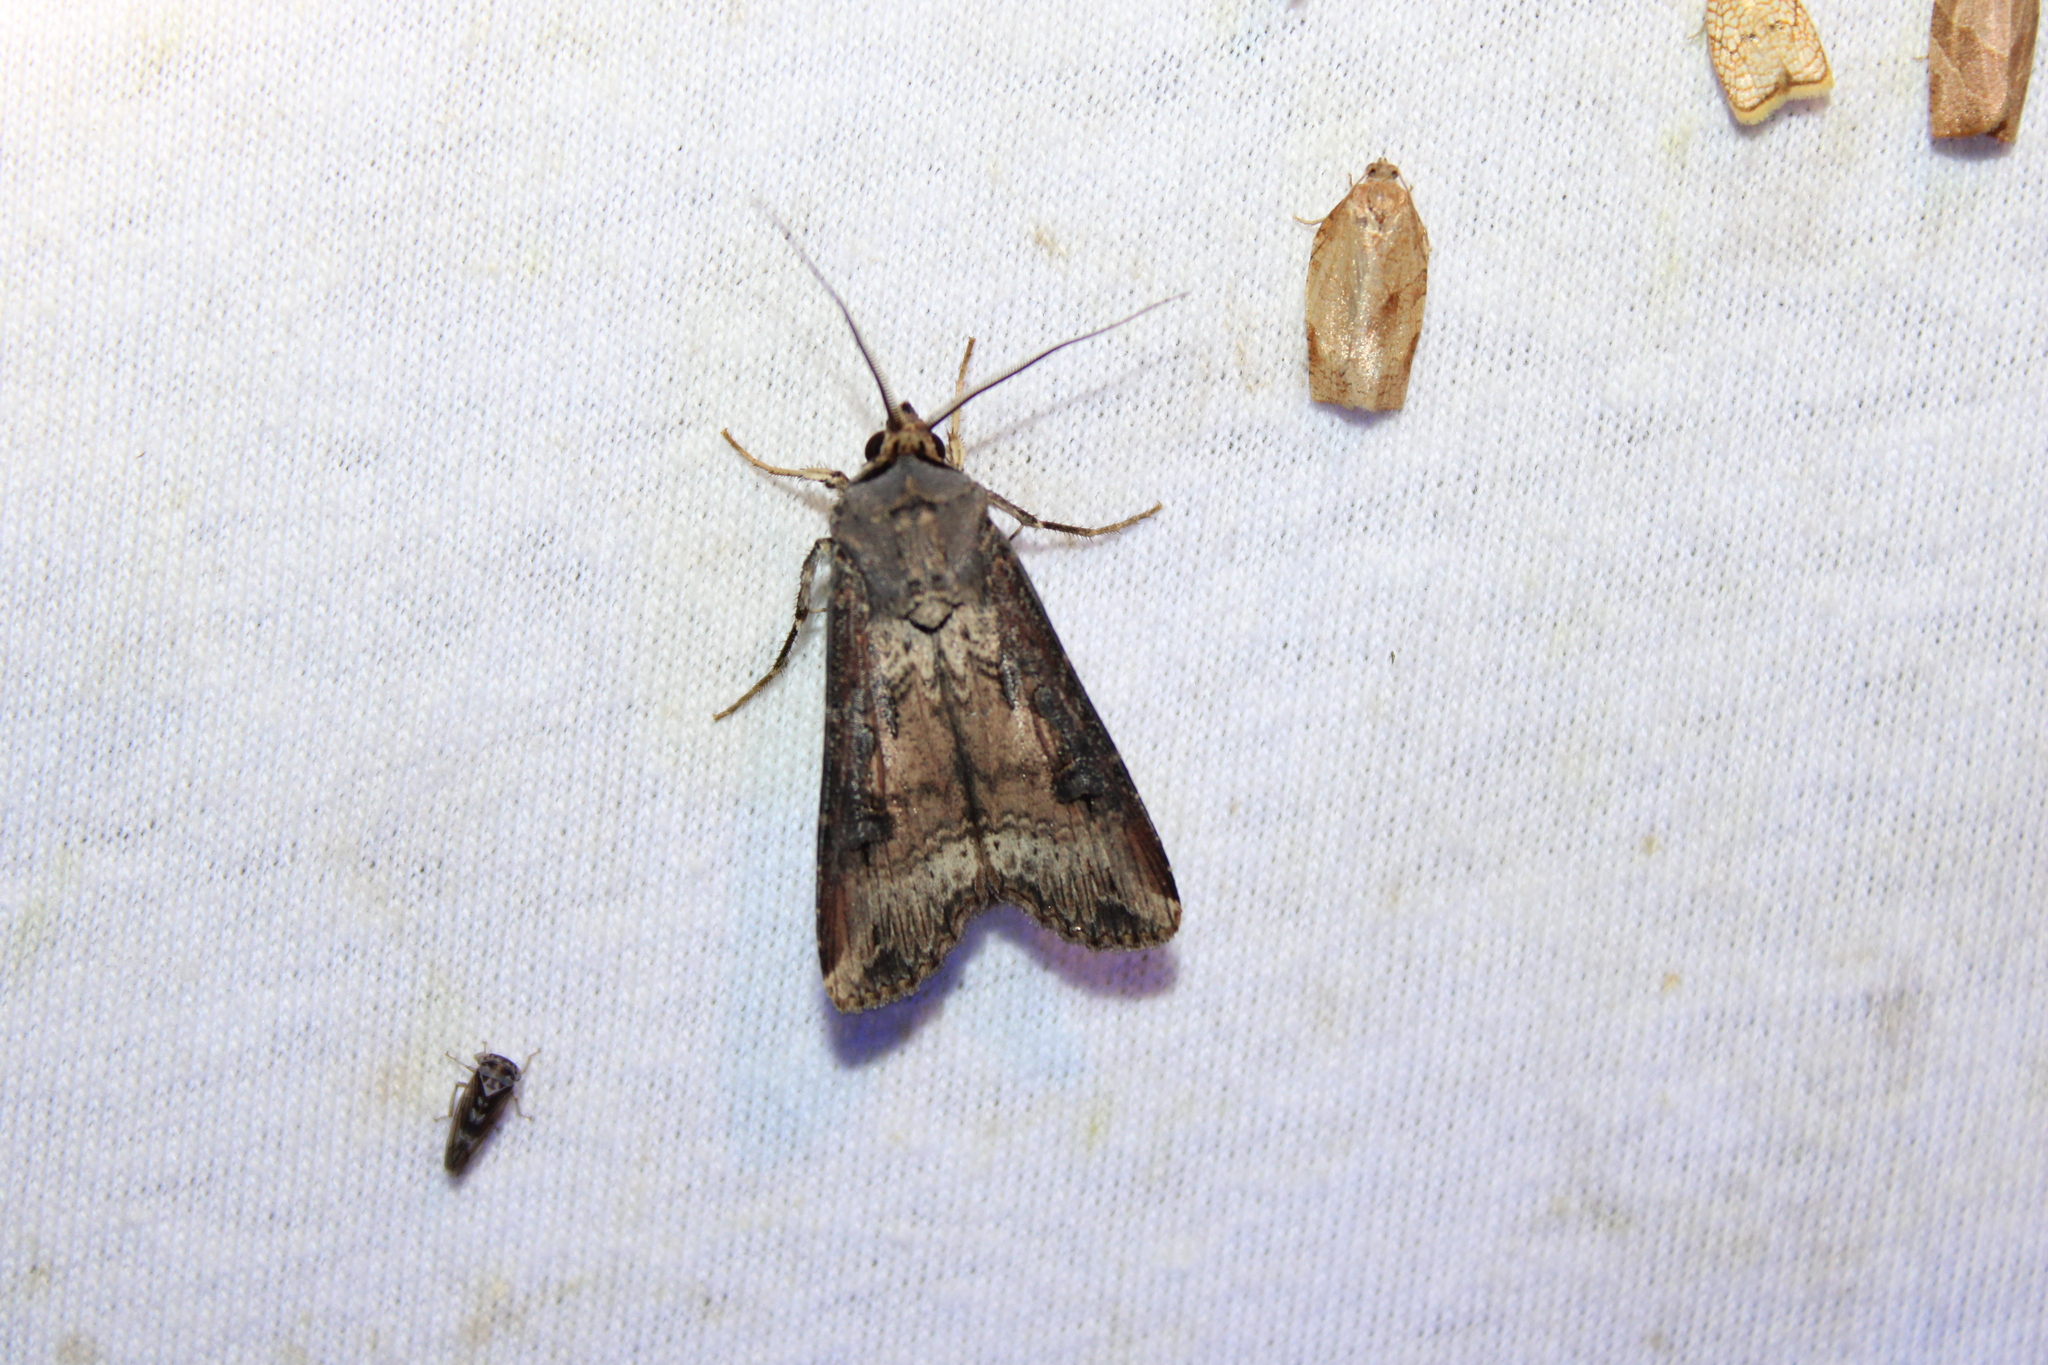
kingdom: Animalia
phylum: Arthropoda
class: Insecta
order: Lepidoptera
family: Noctuidae
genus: Agrotis
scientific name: Agrotis ipsilon
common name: Dark sword-grass
